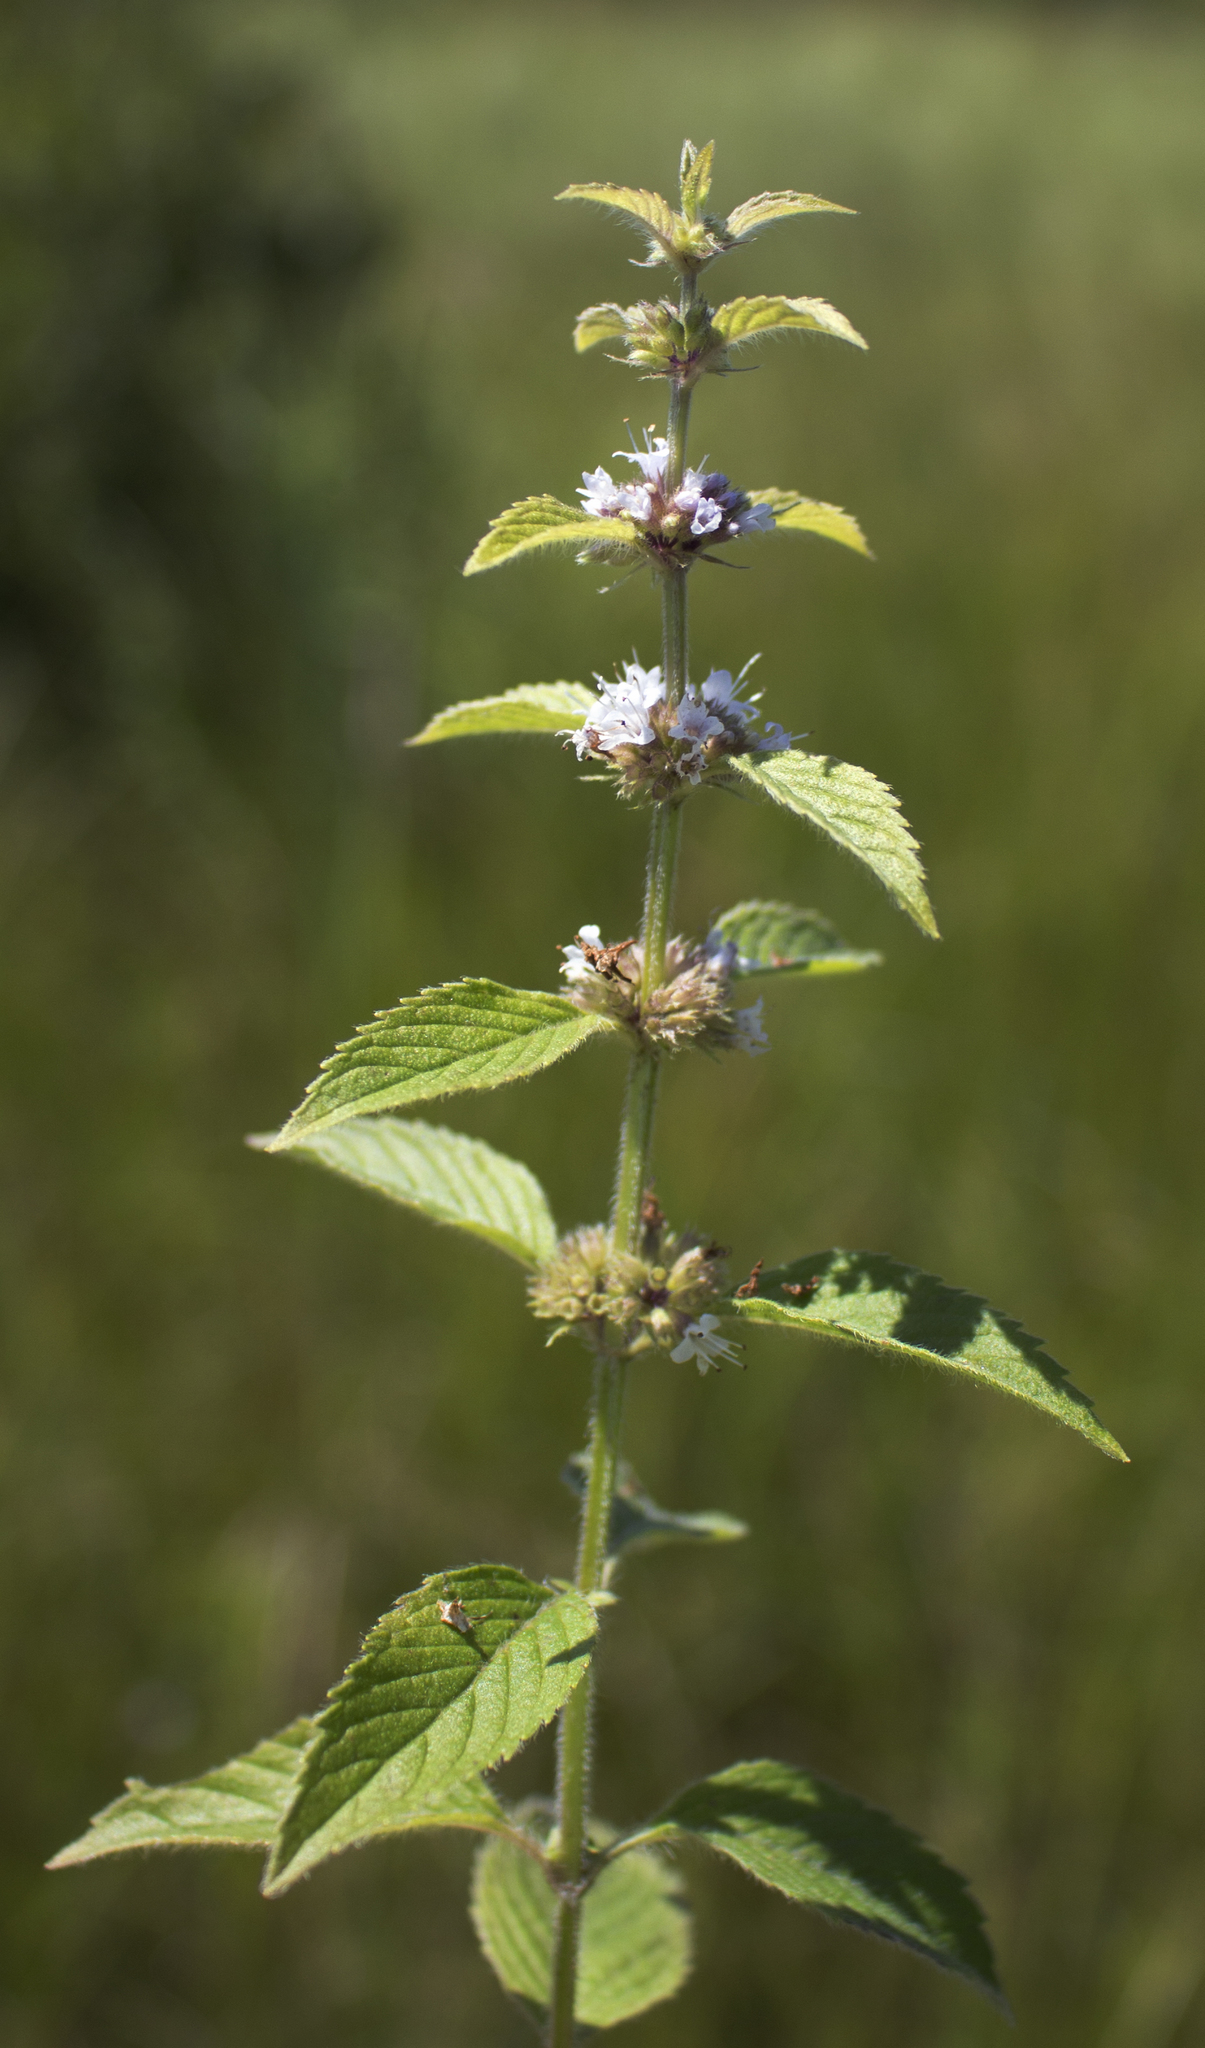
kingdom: Plantae
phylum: Tracheophyta
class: Magnoliopsida
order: Lamiales
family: Lamiaceae
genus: Mentha
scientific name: Mentha arvensis
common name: Corn mint
